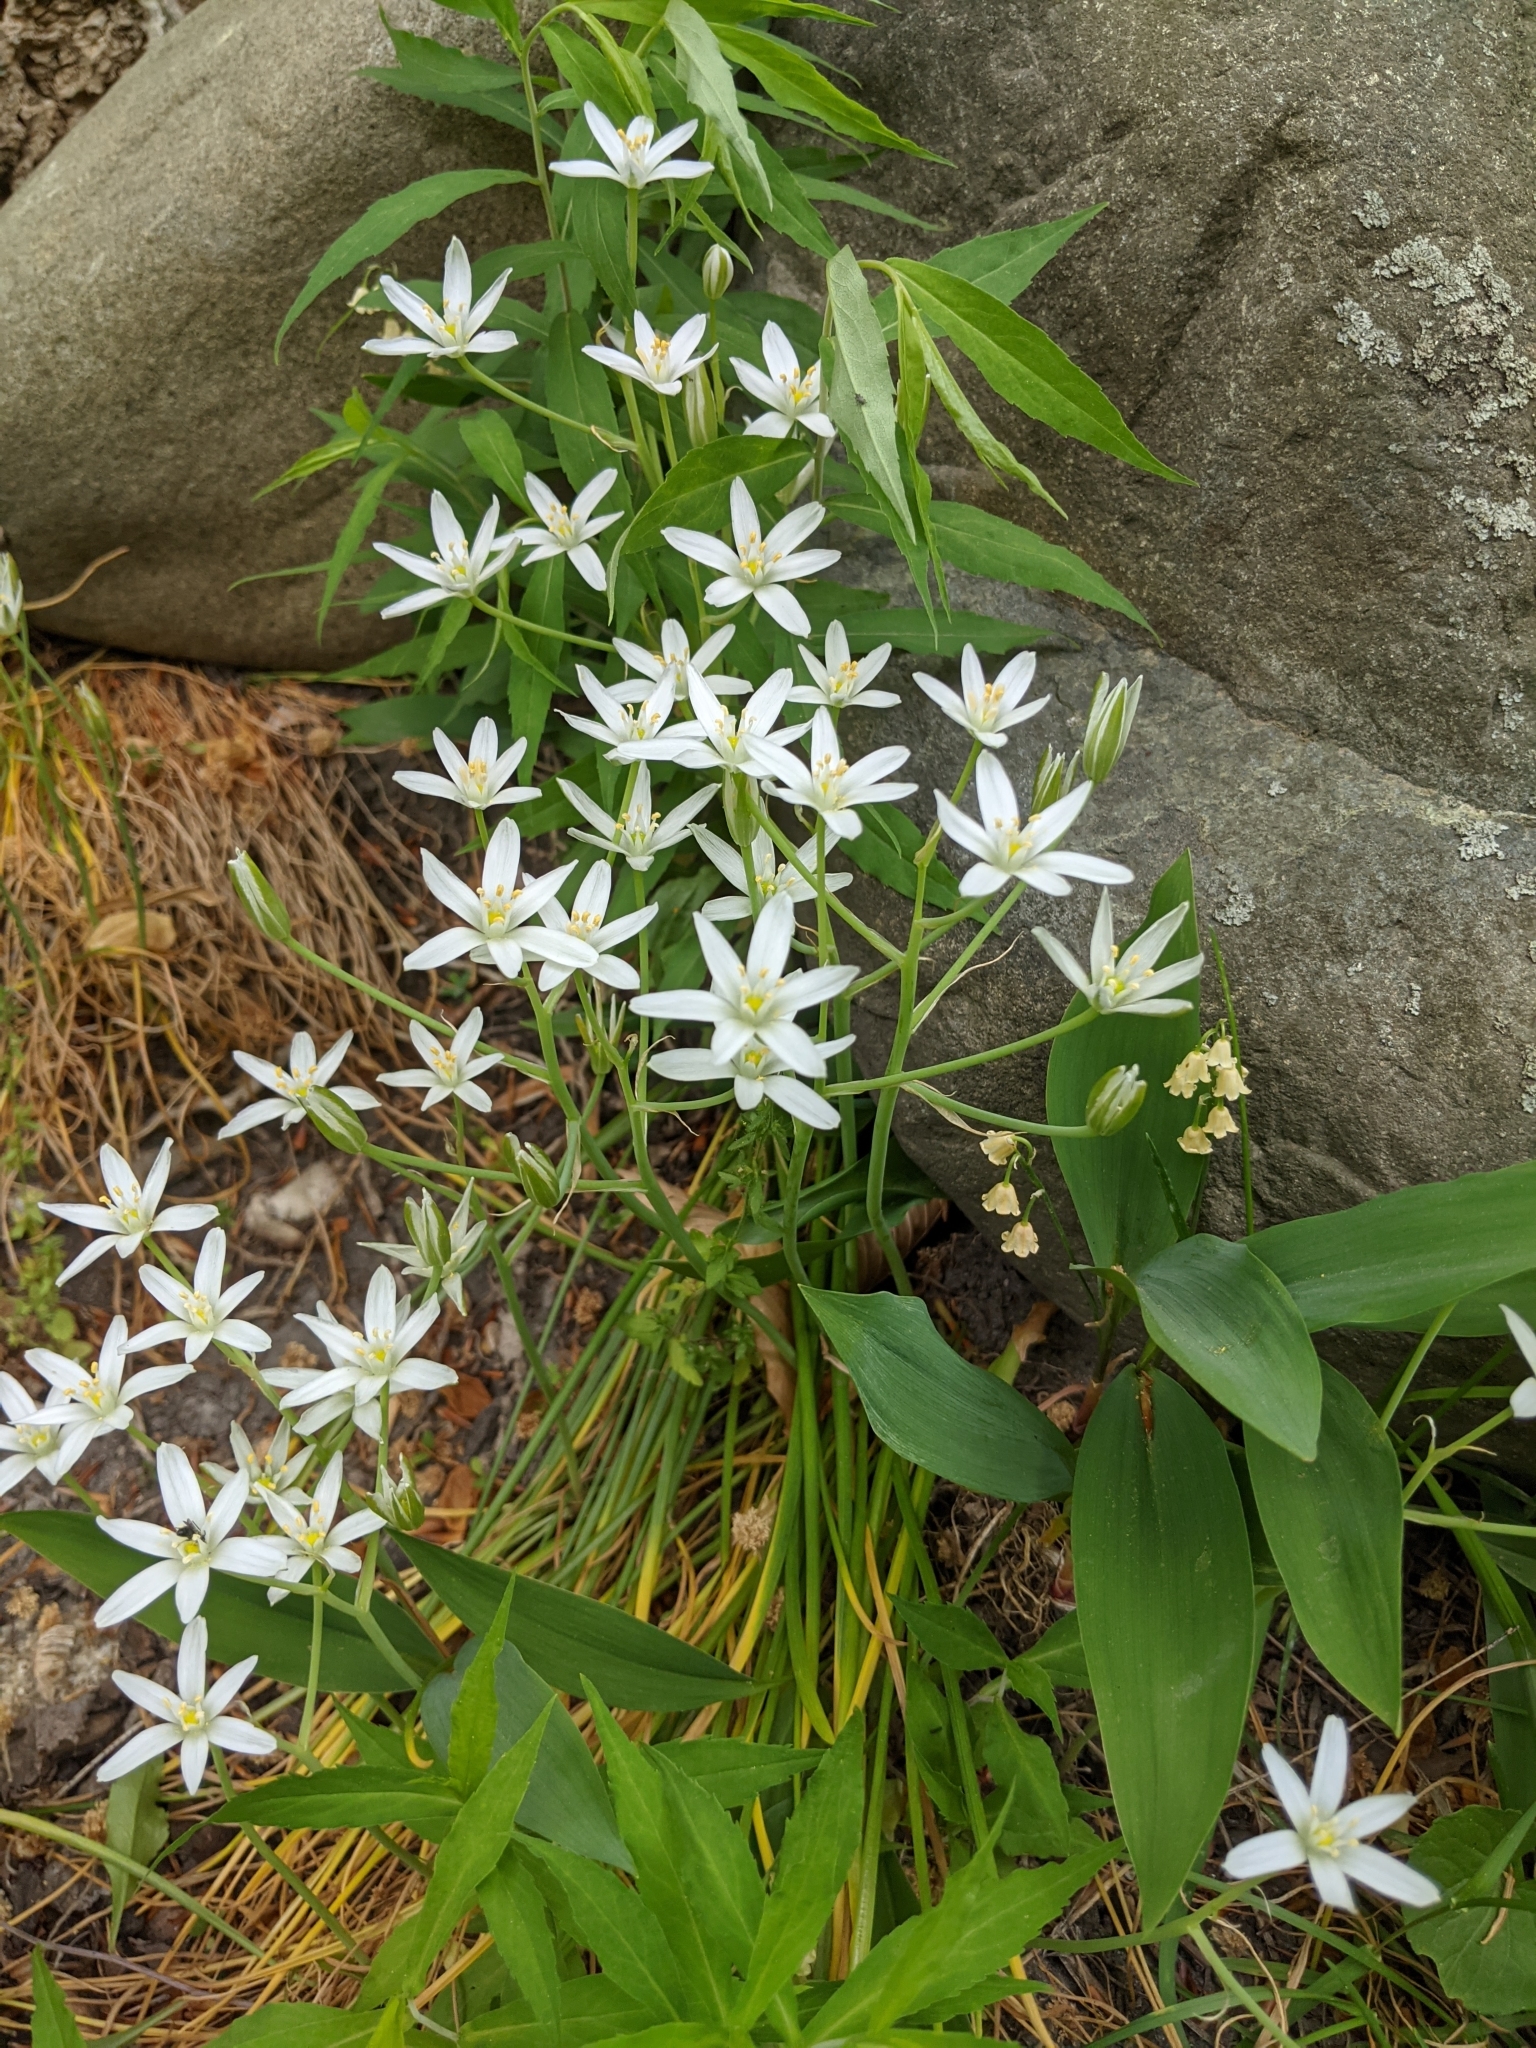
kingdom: Plantae
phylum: Tracheophyta
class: Liliopsida
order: Asparagales
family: Asparagaceae
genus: Ornithogalum
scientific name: Ornithogalum umbellatum
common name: Garden star-of-bethlehem
